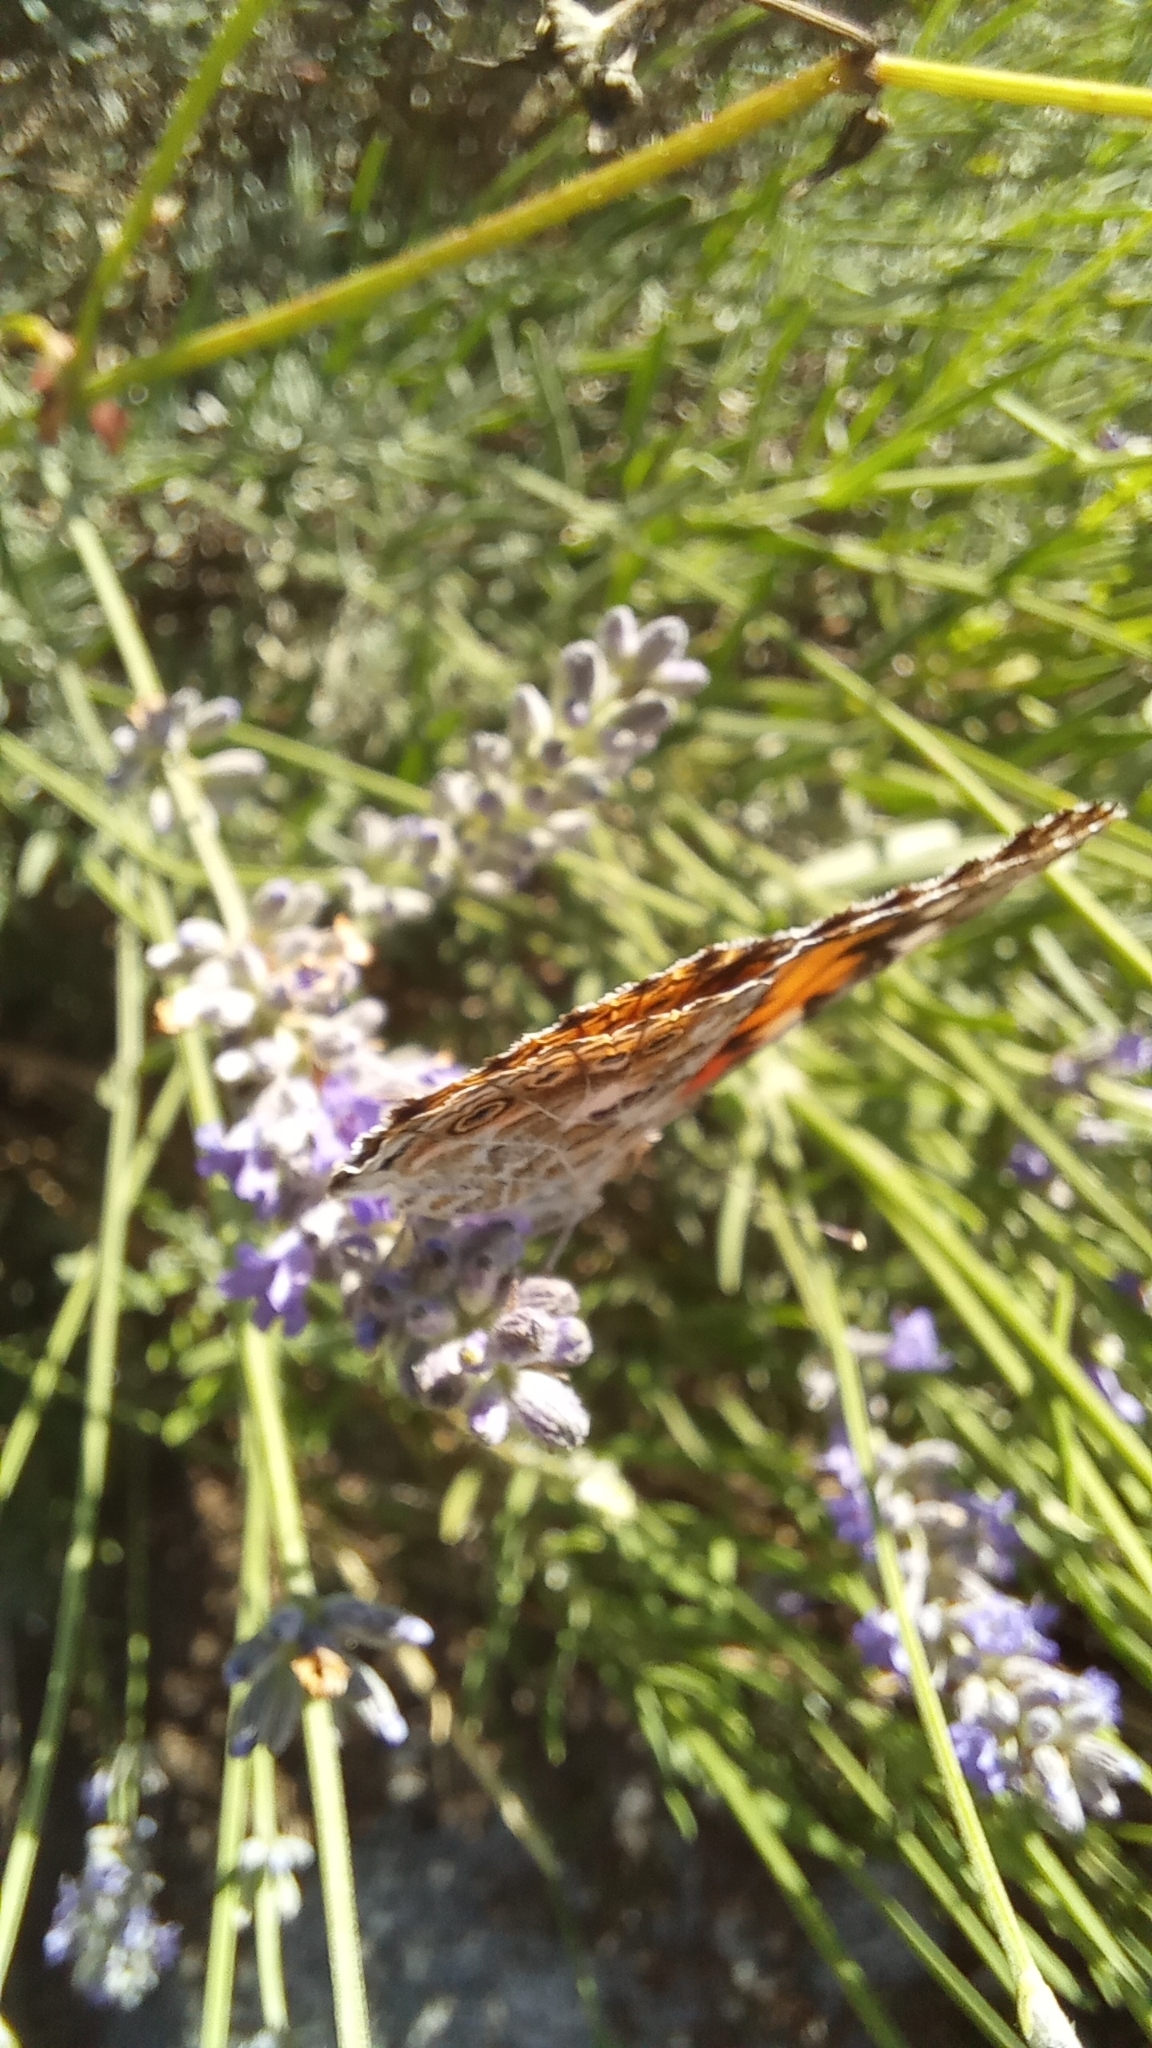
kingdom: Animalia
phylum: Arthropoda
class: Insecta
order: Lepidoptera
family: Nymphalidae
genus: Vanessa
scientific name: Vanessa cardui
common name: Painted lady
